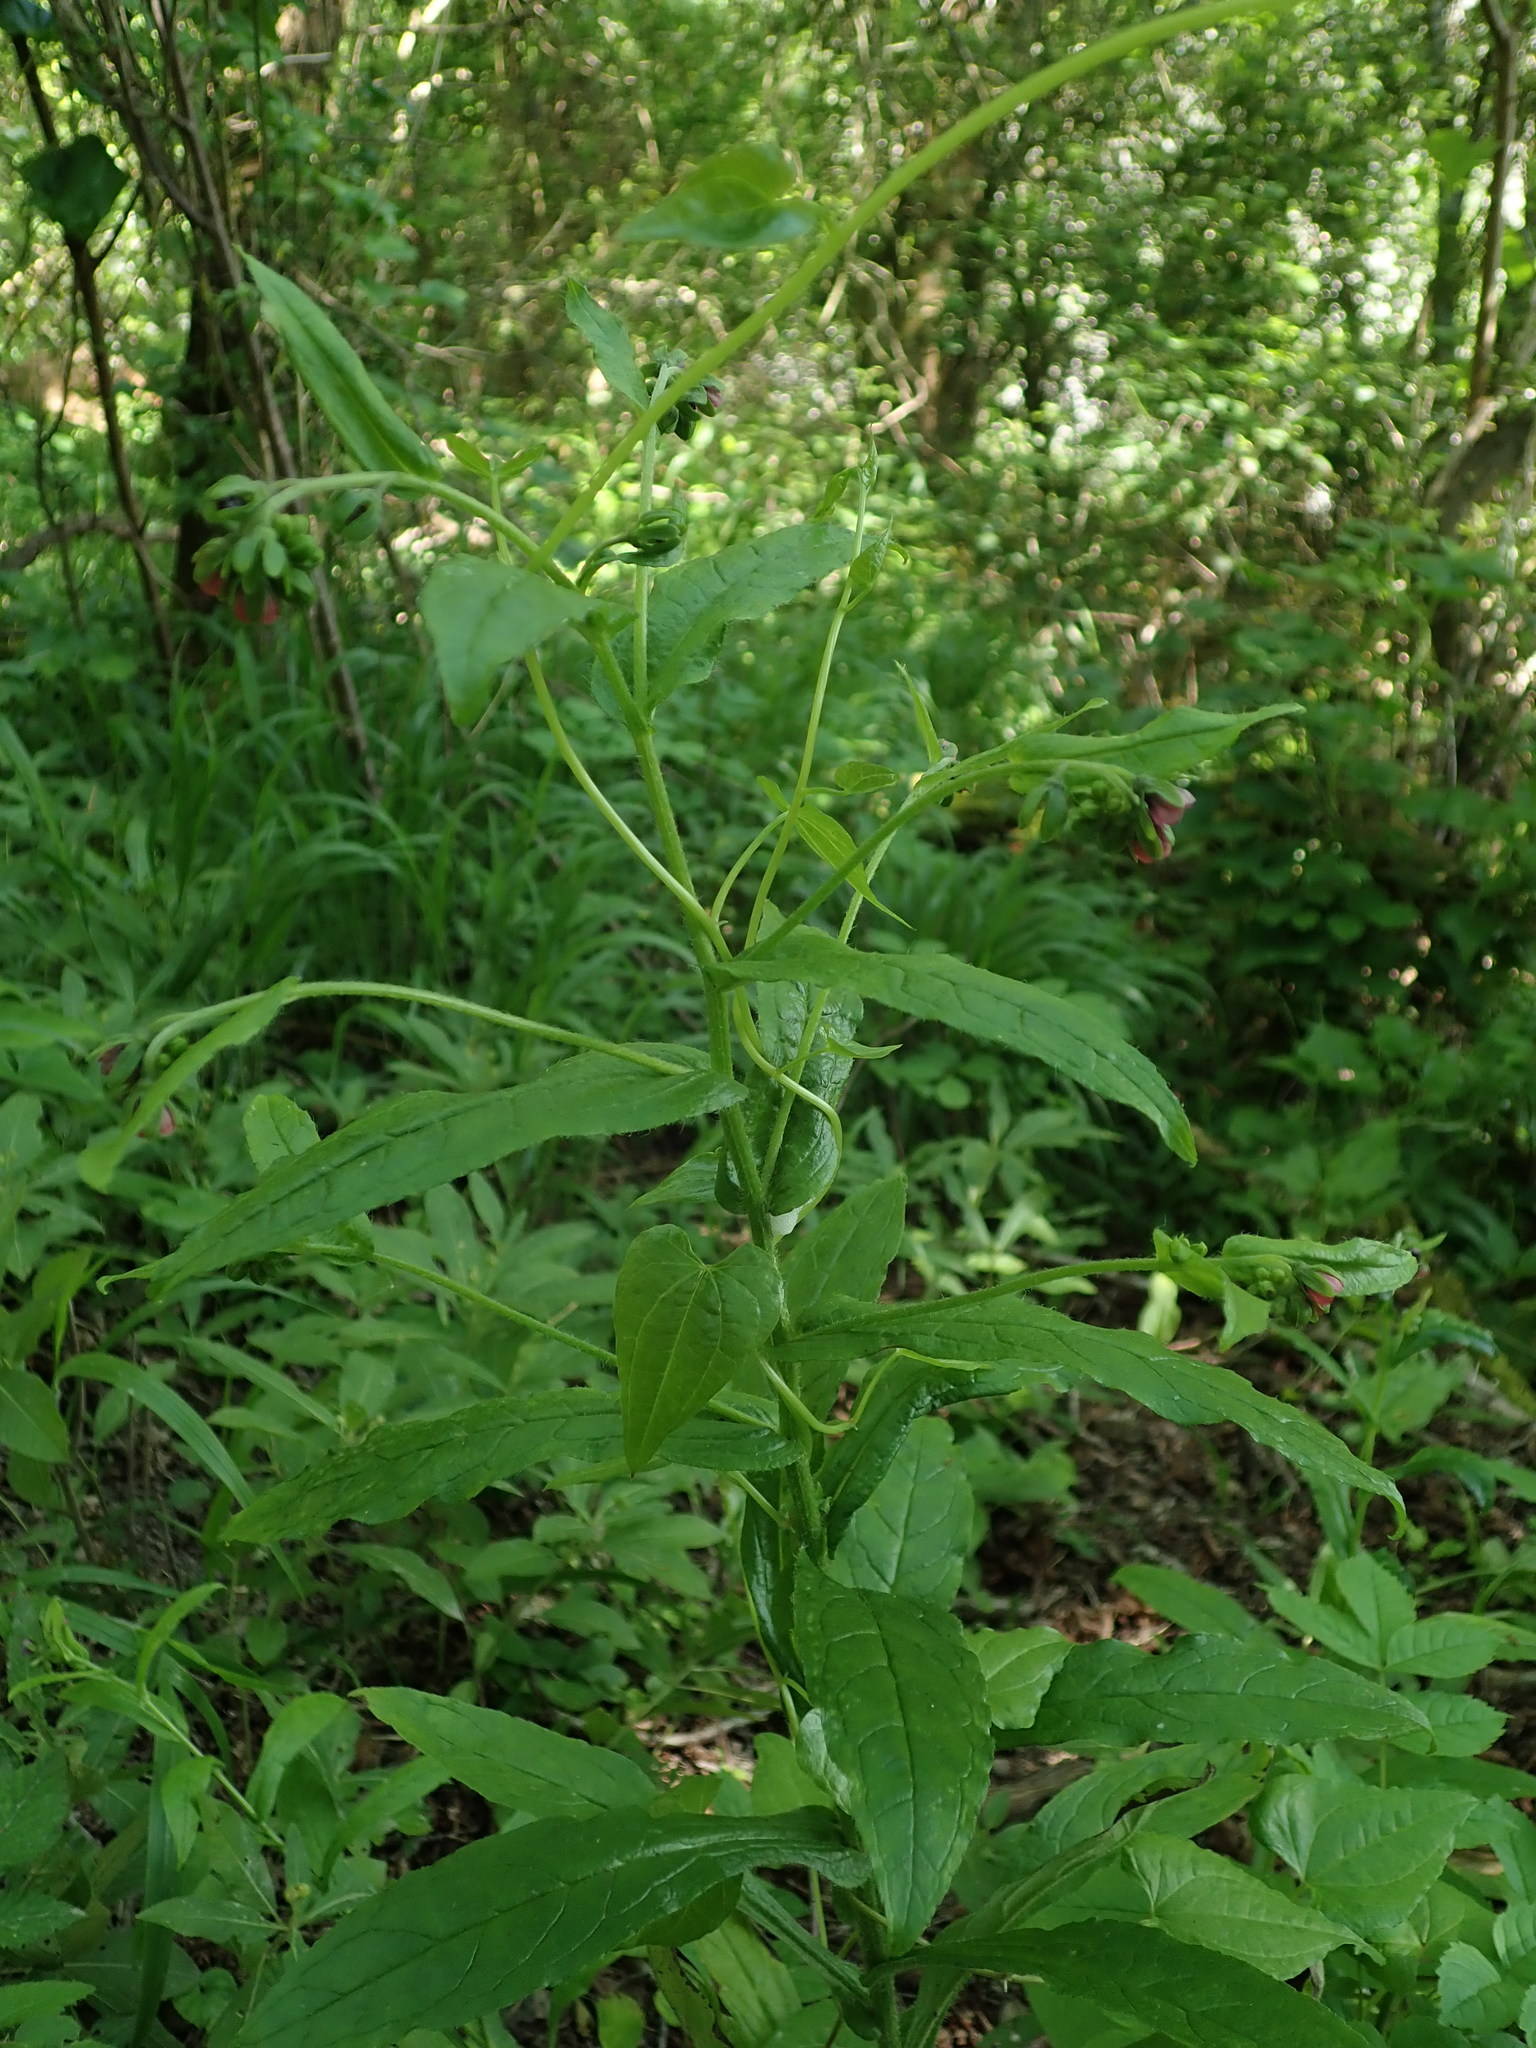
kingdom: Plantae
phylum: Tracheophyta
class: Magnoliopsida
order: Boraginales
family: Boraginaceae
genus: Cynoglossum
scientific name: Cynoglossum germanicum
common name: Green hound's-tongue
